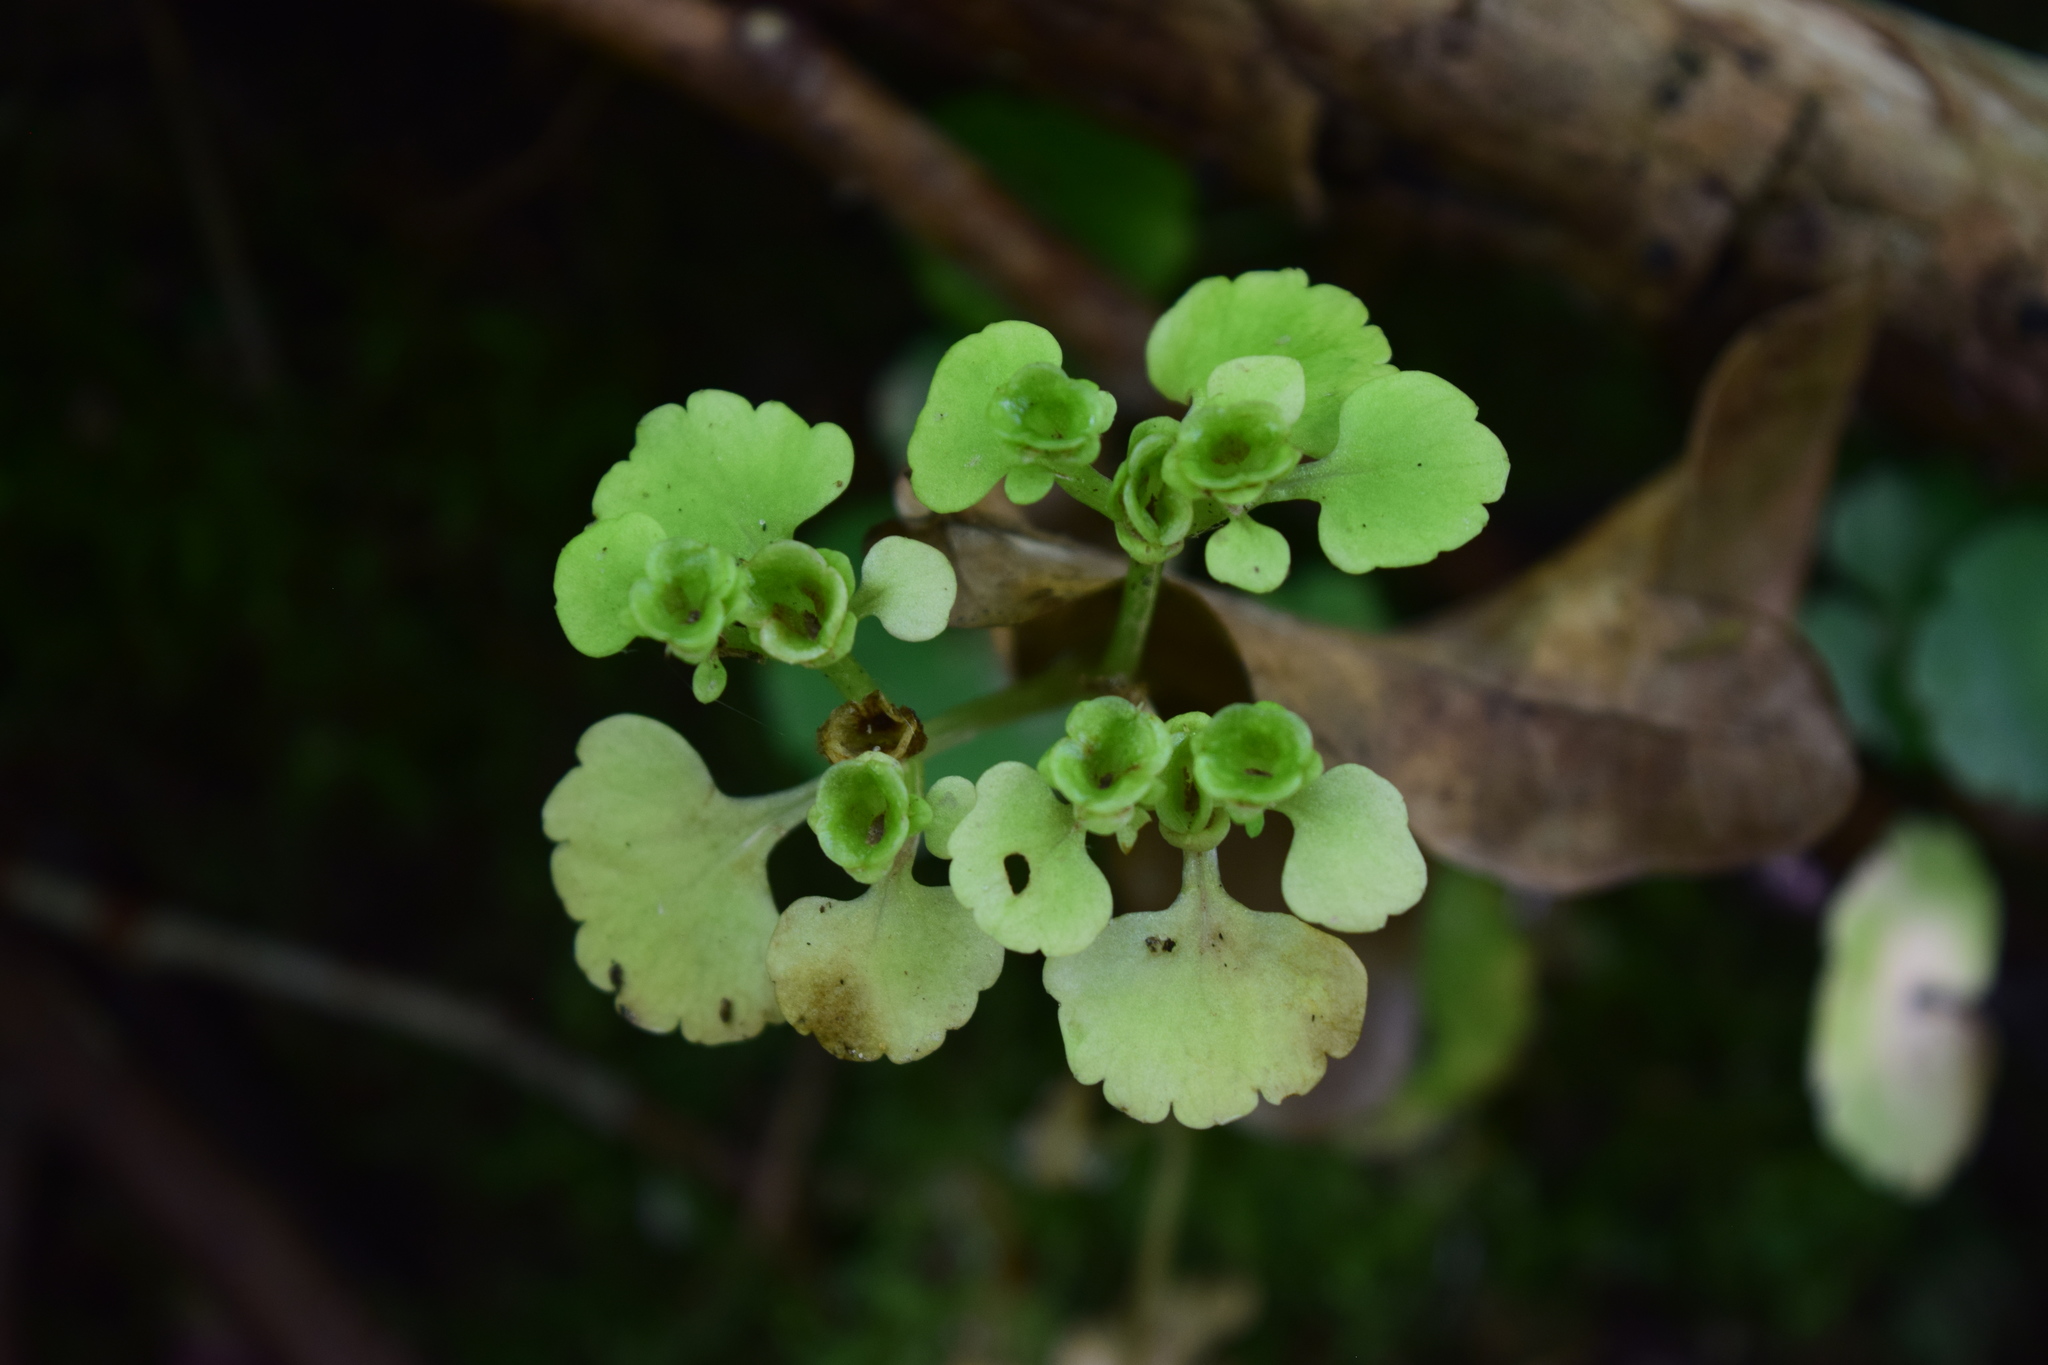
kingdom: Plantae
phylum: Tracheophyta
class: Magnoliopsida
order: Saxifragales
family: Saxifragaceae
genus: Chrysosplenium
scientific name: Chrysosplenium alternifolium
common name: Alternate-leaved golden-saxifrage
